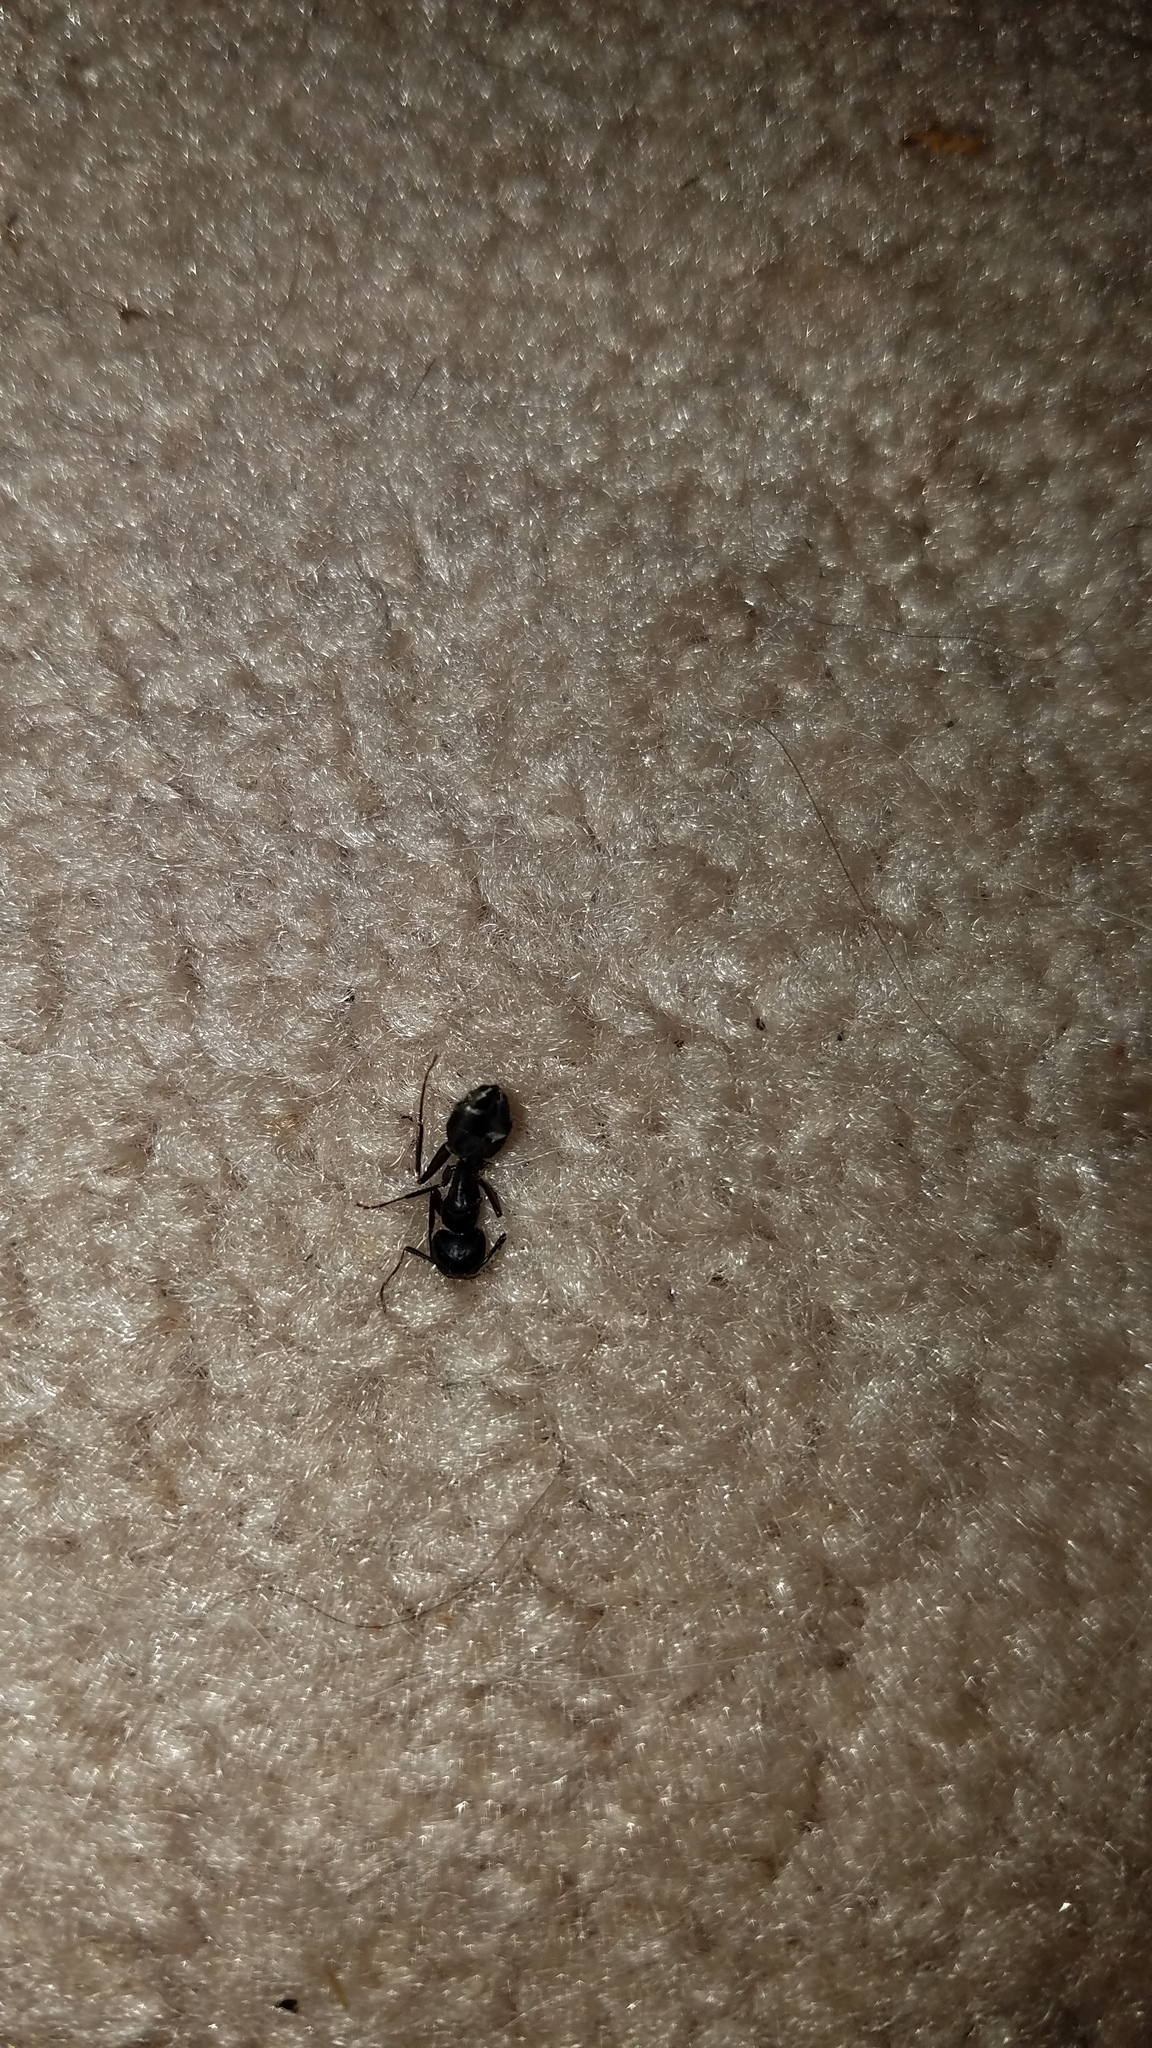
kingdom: Animalia
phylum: Arthropoda
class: Insecta
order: Hymenoptera
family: Formicidae
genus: Camponotus
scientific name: Camponotus pennsylvanicus
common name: Black carpenter ant
